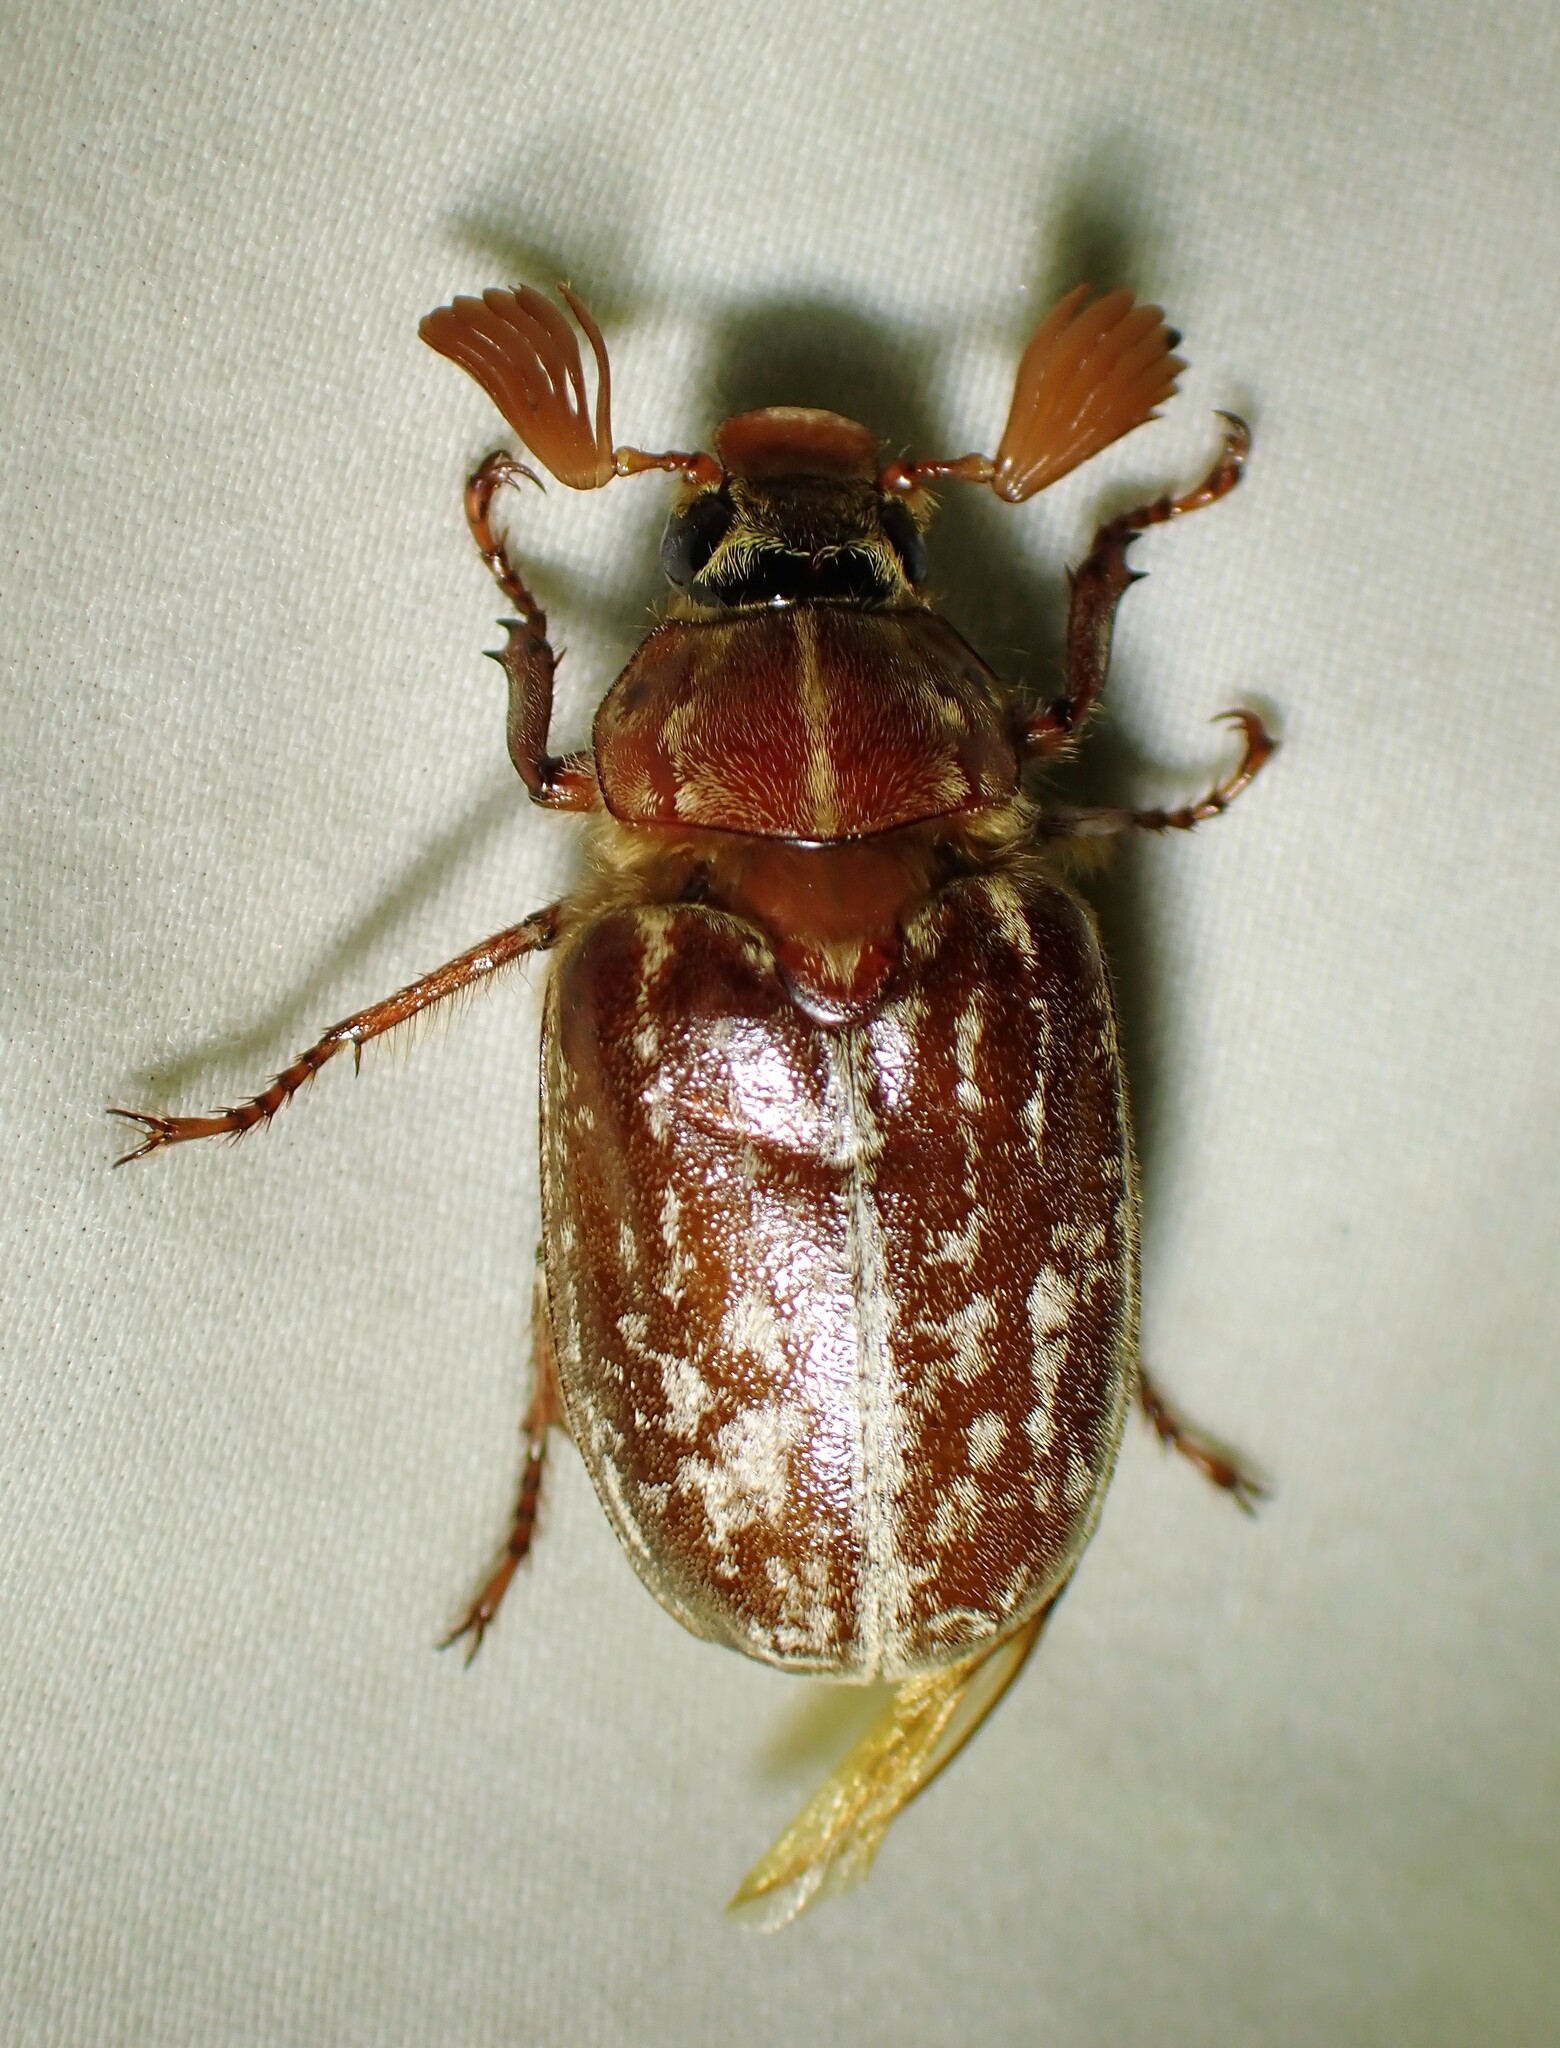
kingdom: Animalia
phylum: Arthropoda
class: Insecta
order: Coleoptera
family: Scarabaeidae
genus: Polyphylla
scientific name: Polyphylla variolosa
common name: Variegated june beetle
